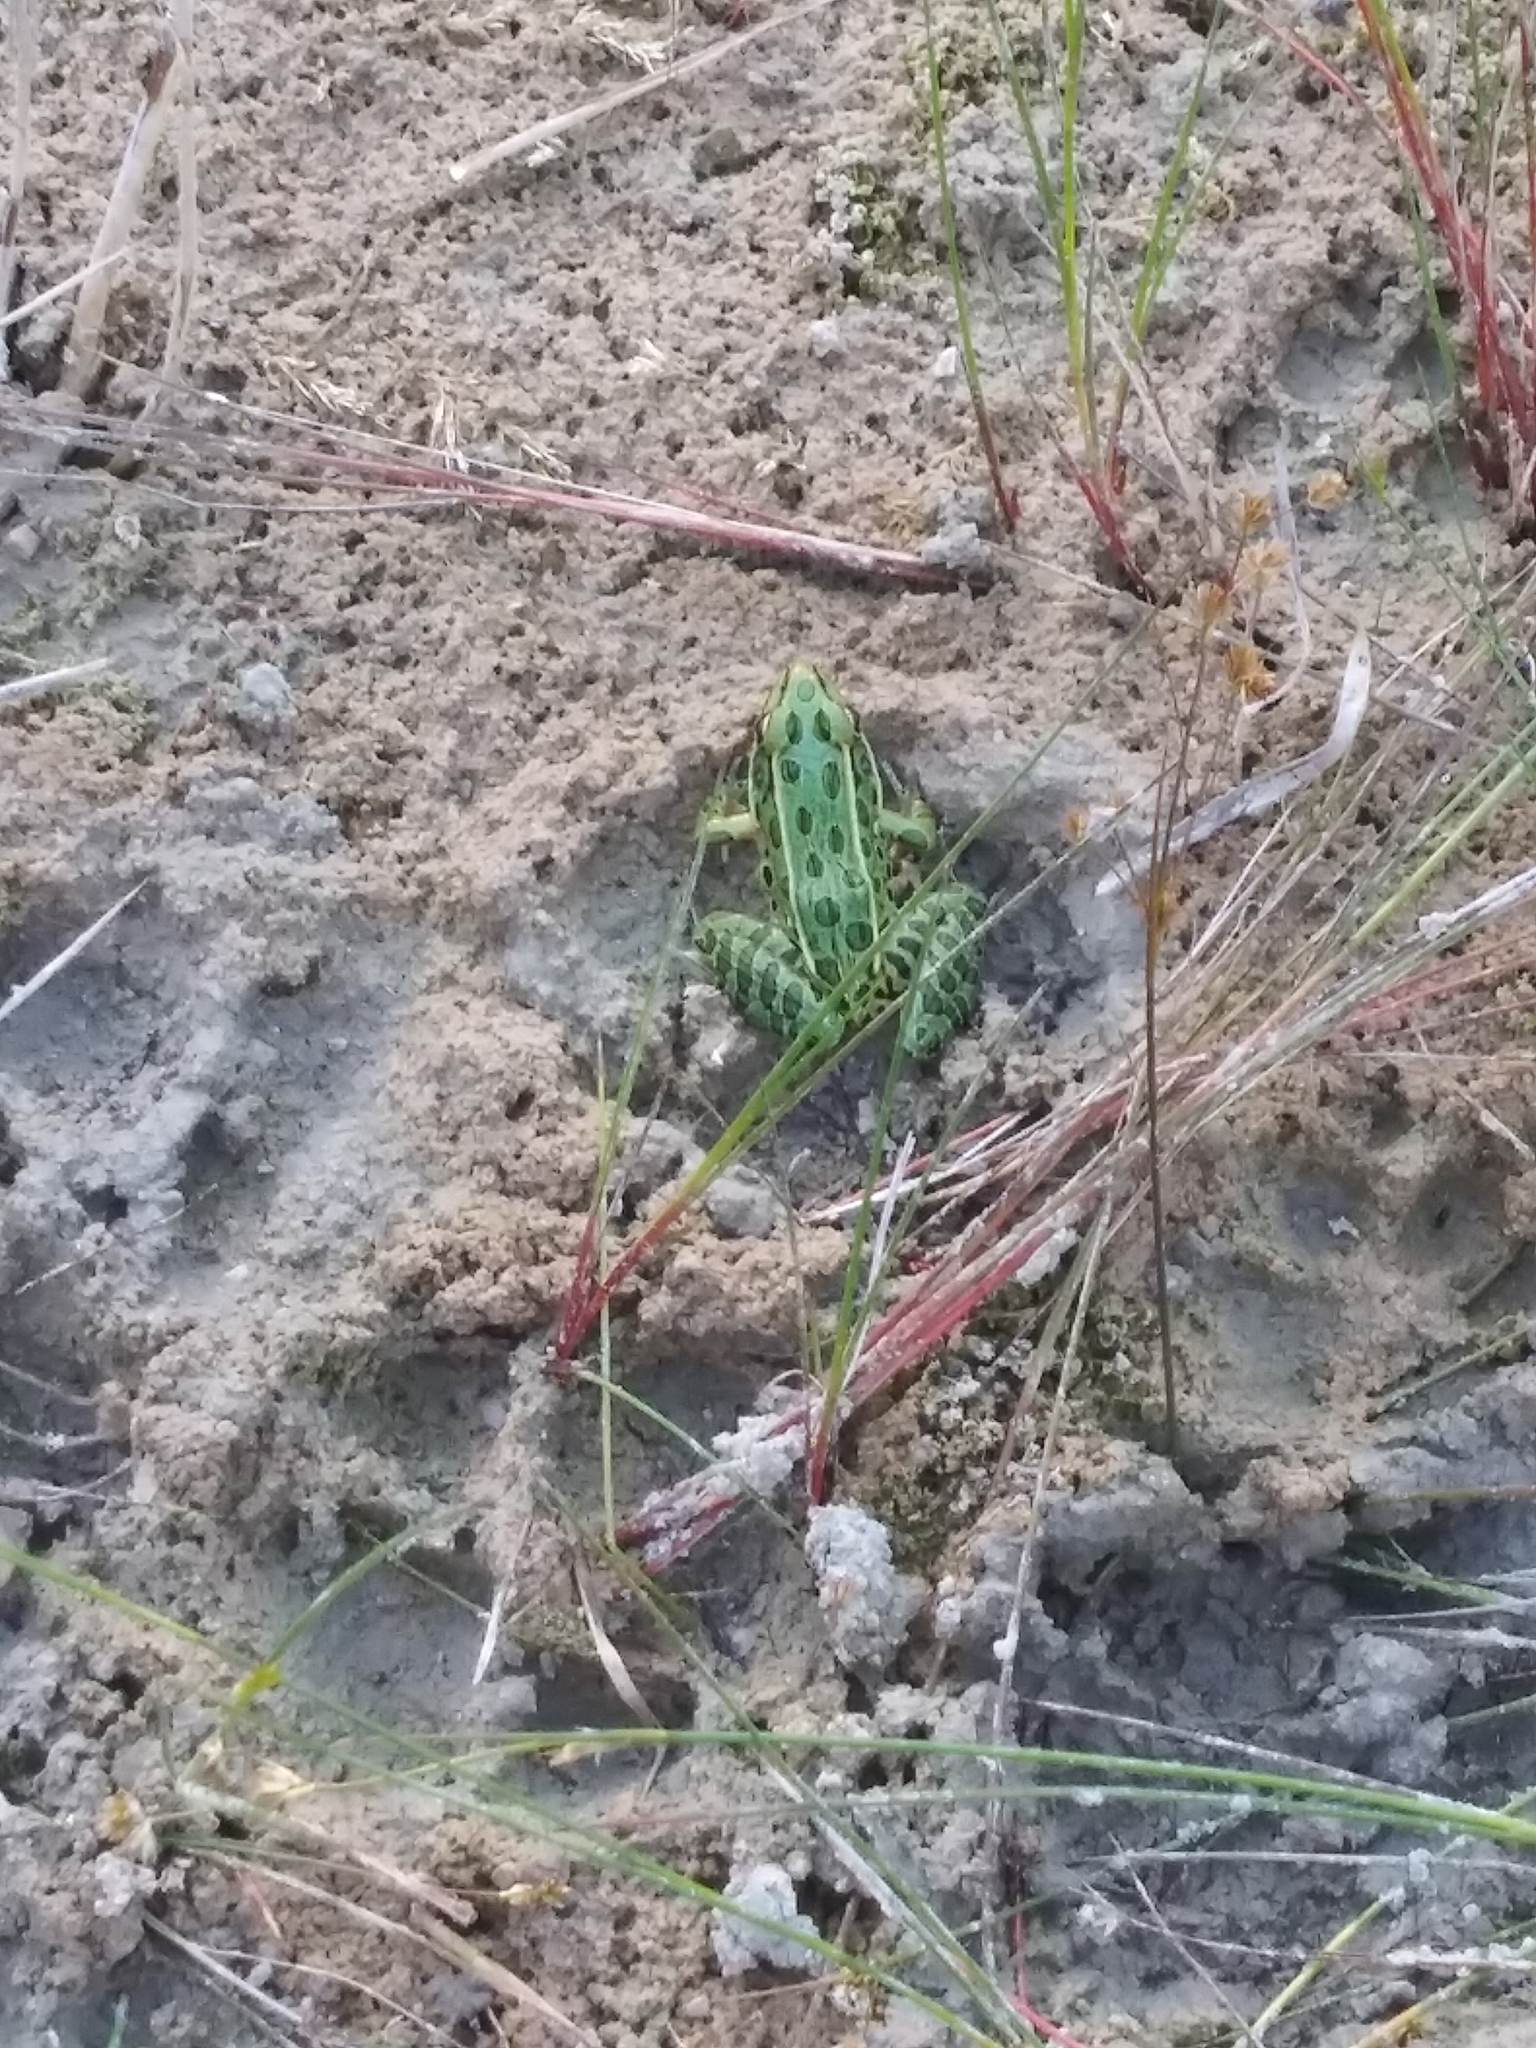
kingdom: Animalia
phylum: Chordata
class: Amphibia
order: Anura
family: Ranidae
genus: Lithobates
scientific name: Lithobates pipiens
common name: Northern leopard frog
